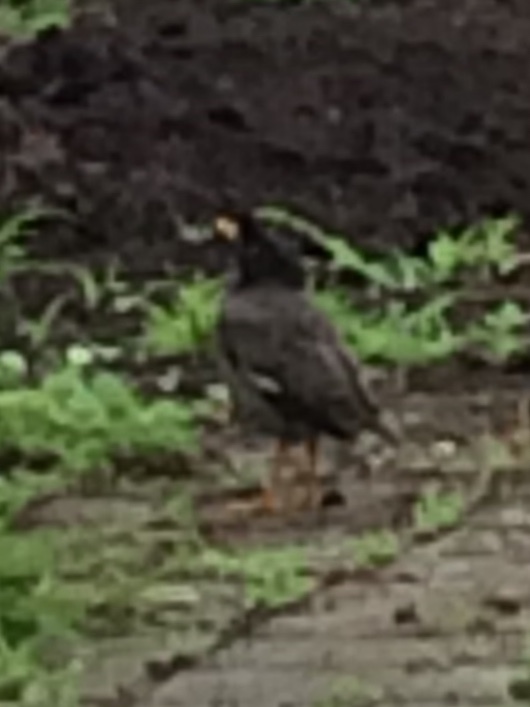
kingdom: Animalia
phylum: Chordata
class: Aves
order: Passeriformes
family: Sturnidae
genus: Acridotheres
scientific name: Acridotheres fuscus
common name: Jungle myna
